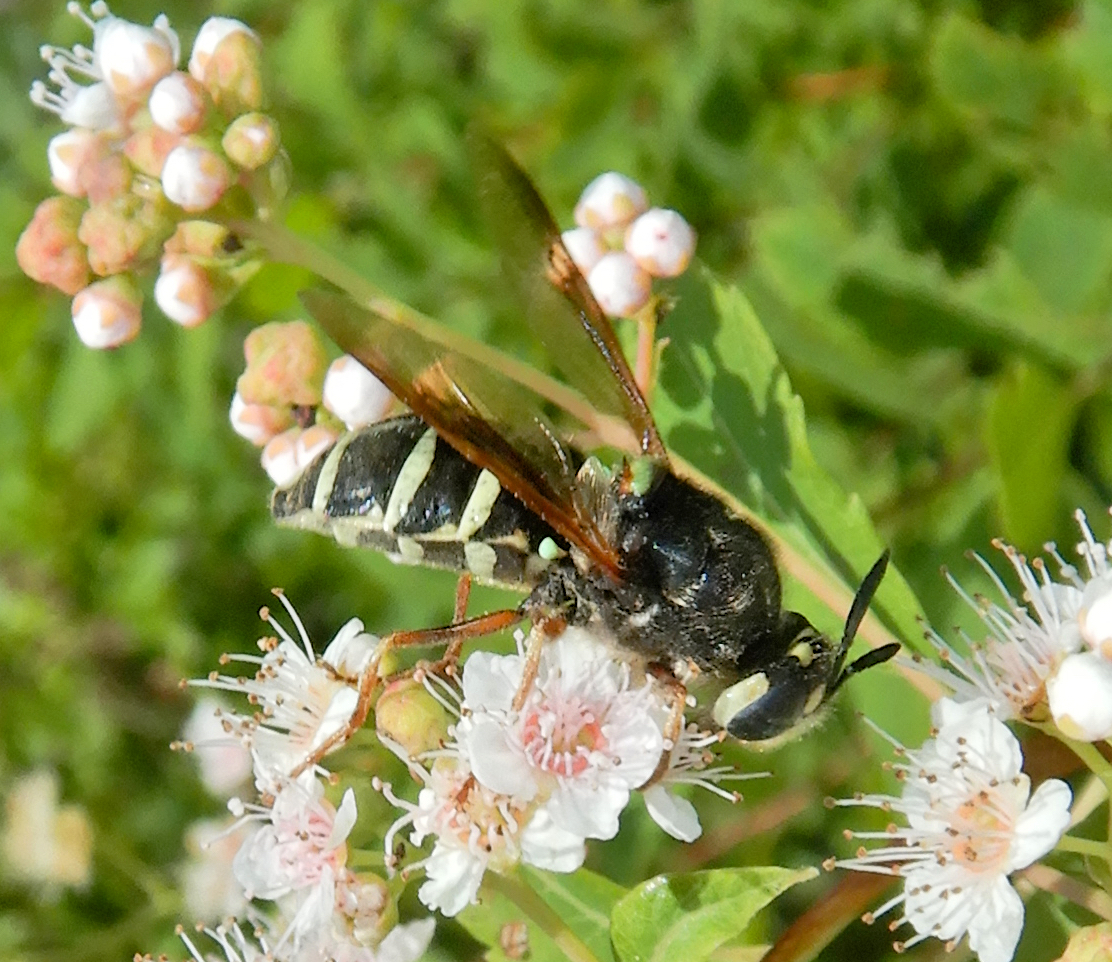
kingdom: Animalia
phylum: Arthropoda
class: Insecta
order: Diptera
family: Stratiomyidae
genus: Stratiomys
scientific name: Stratiomys badia
